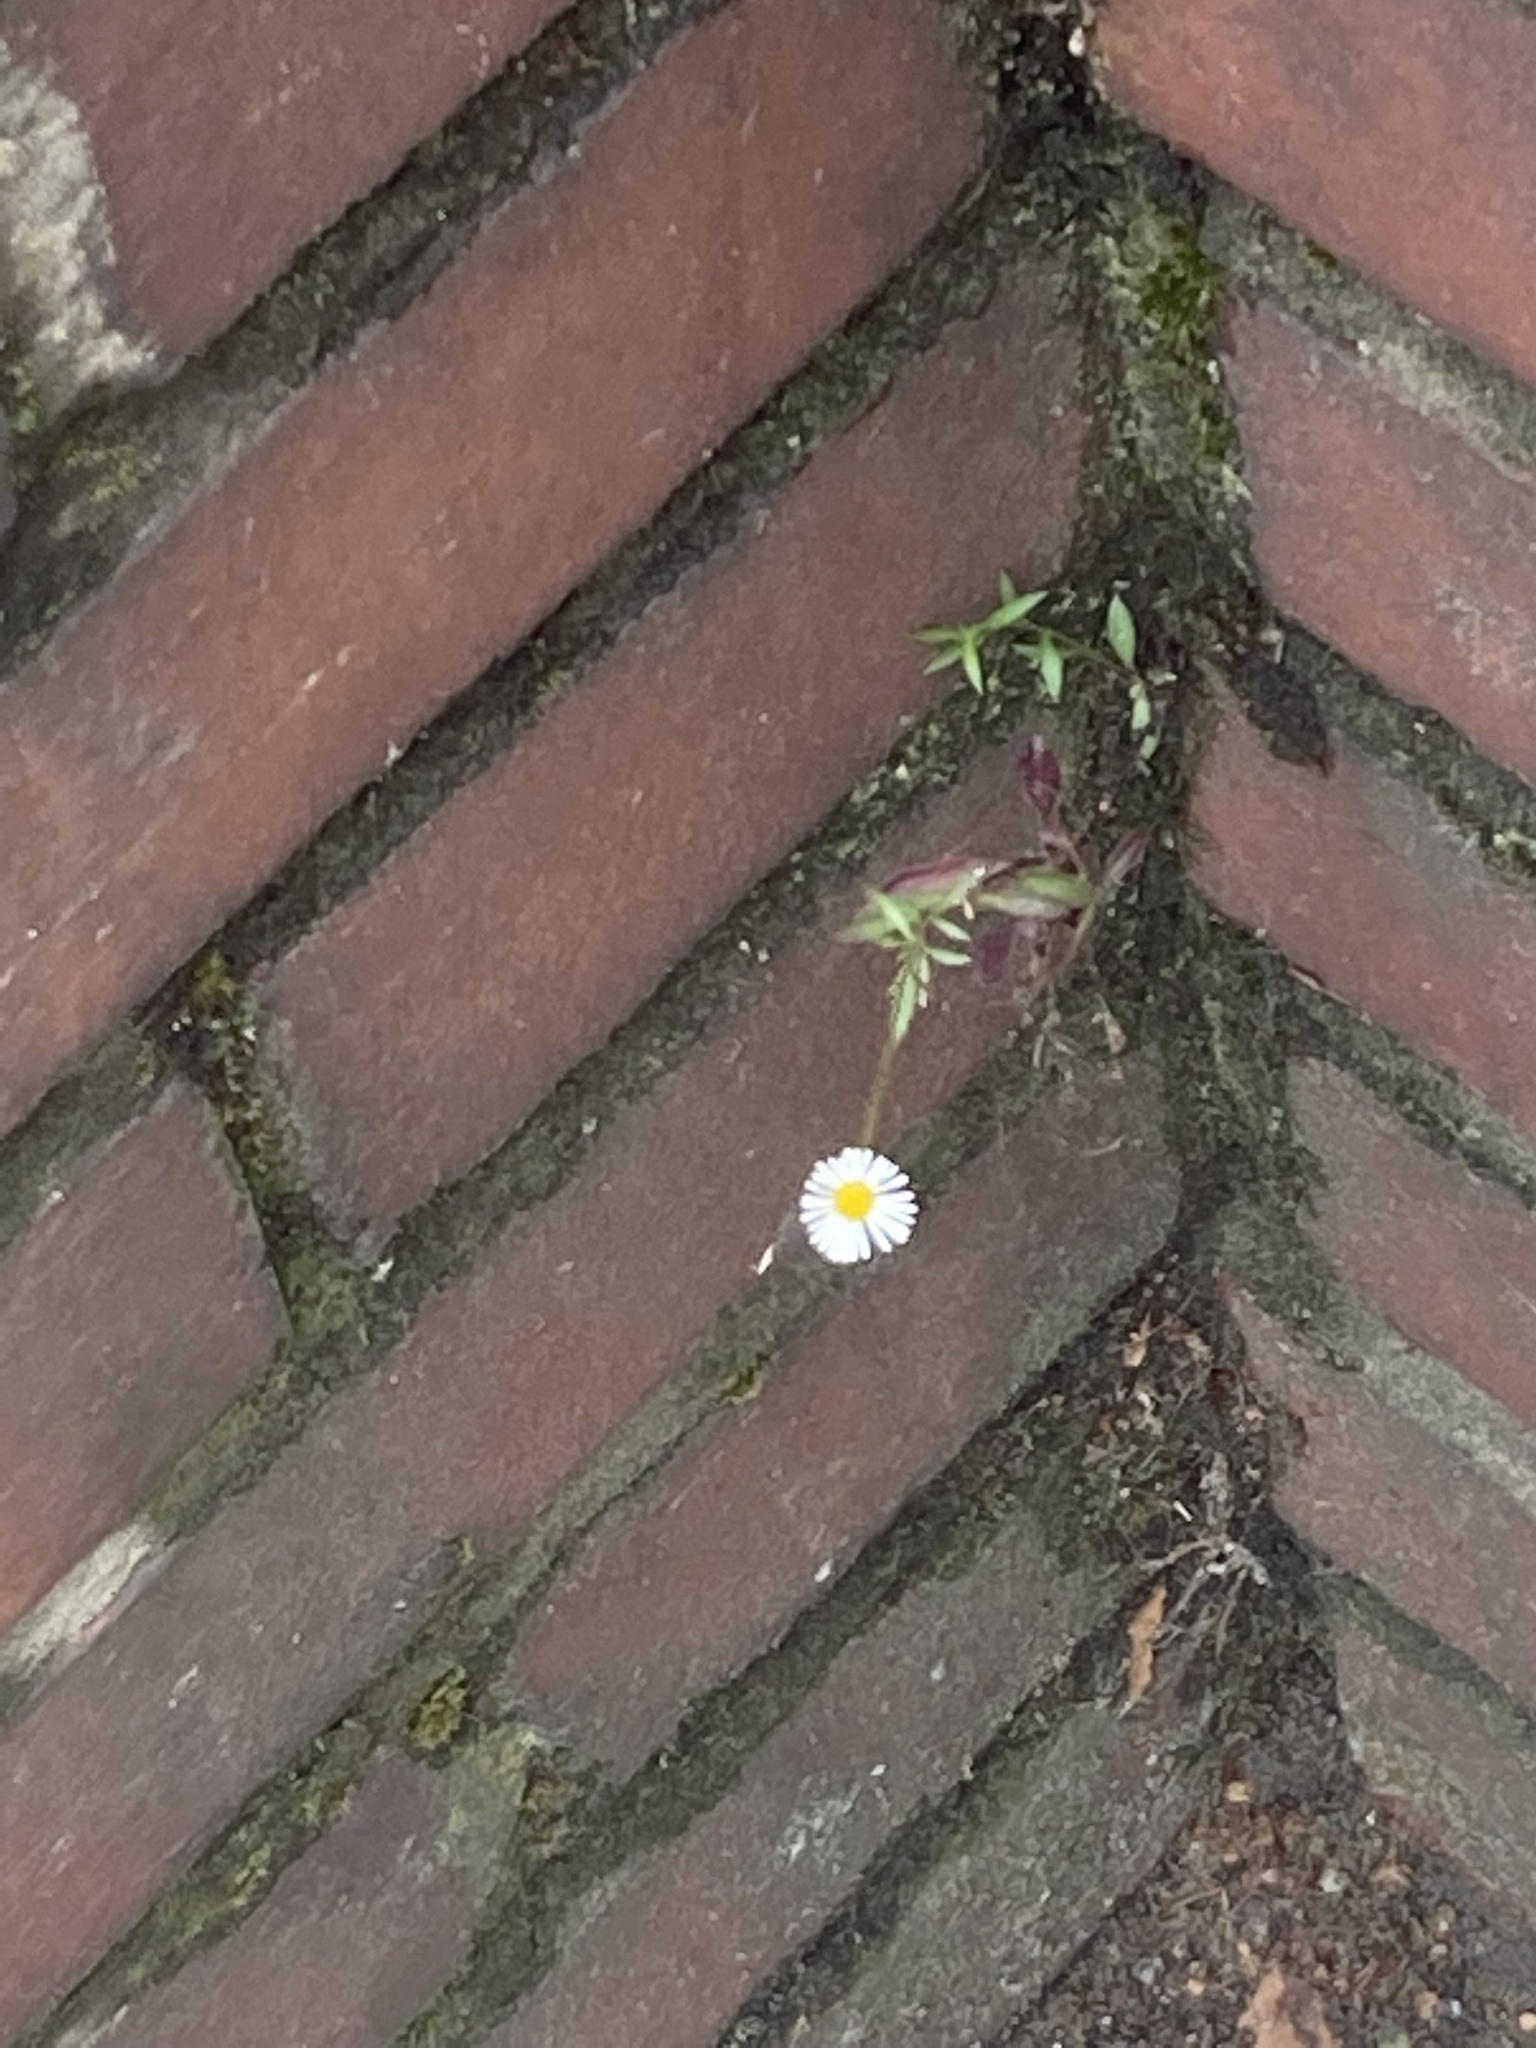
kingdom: Plantae
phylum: Tracheophyta
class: Magnoliopsida
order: Asterales
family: Asteraceae
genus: Erigeron
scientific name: Erigeron karvinskianus
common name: Mexican fleabane
